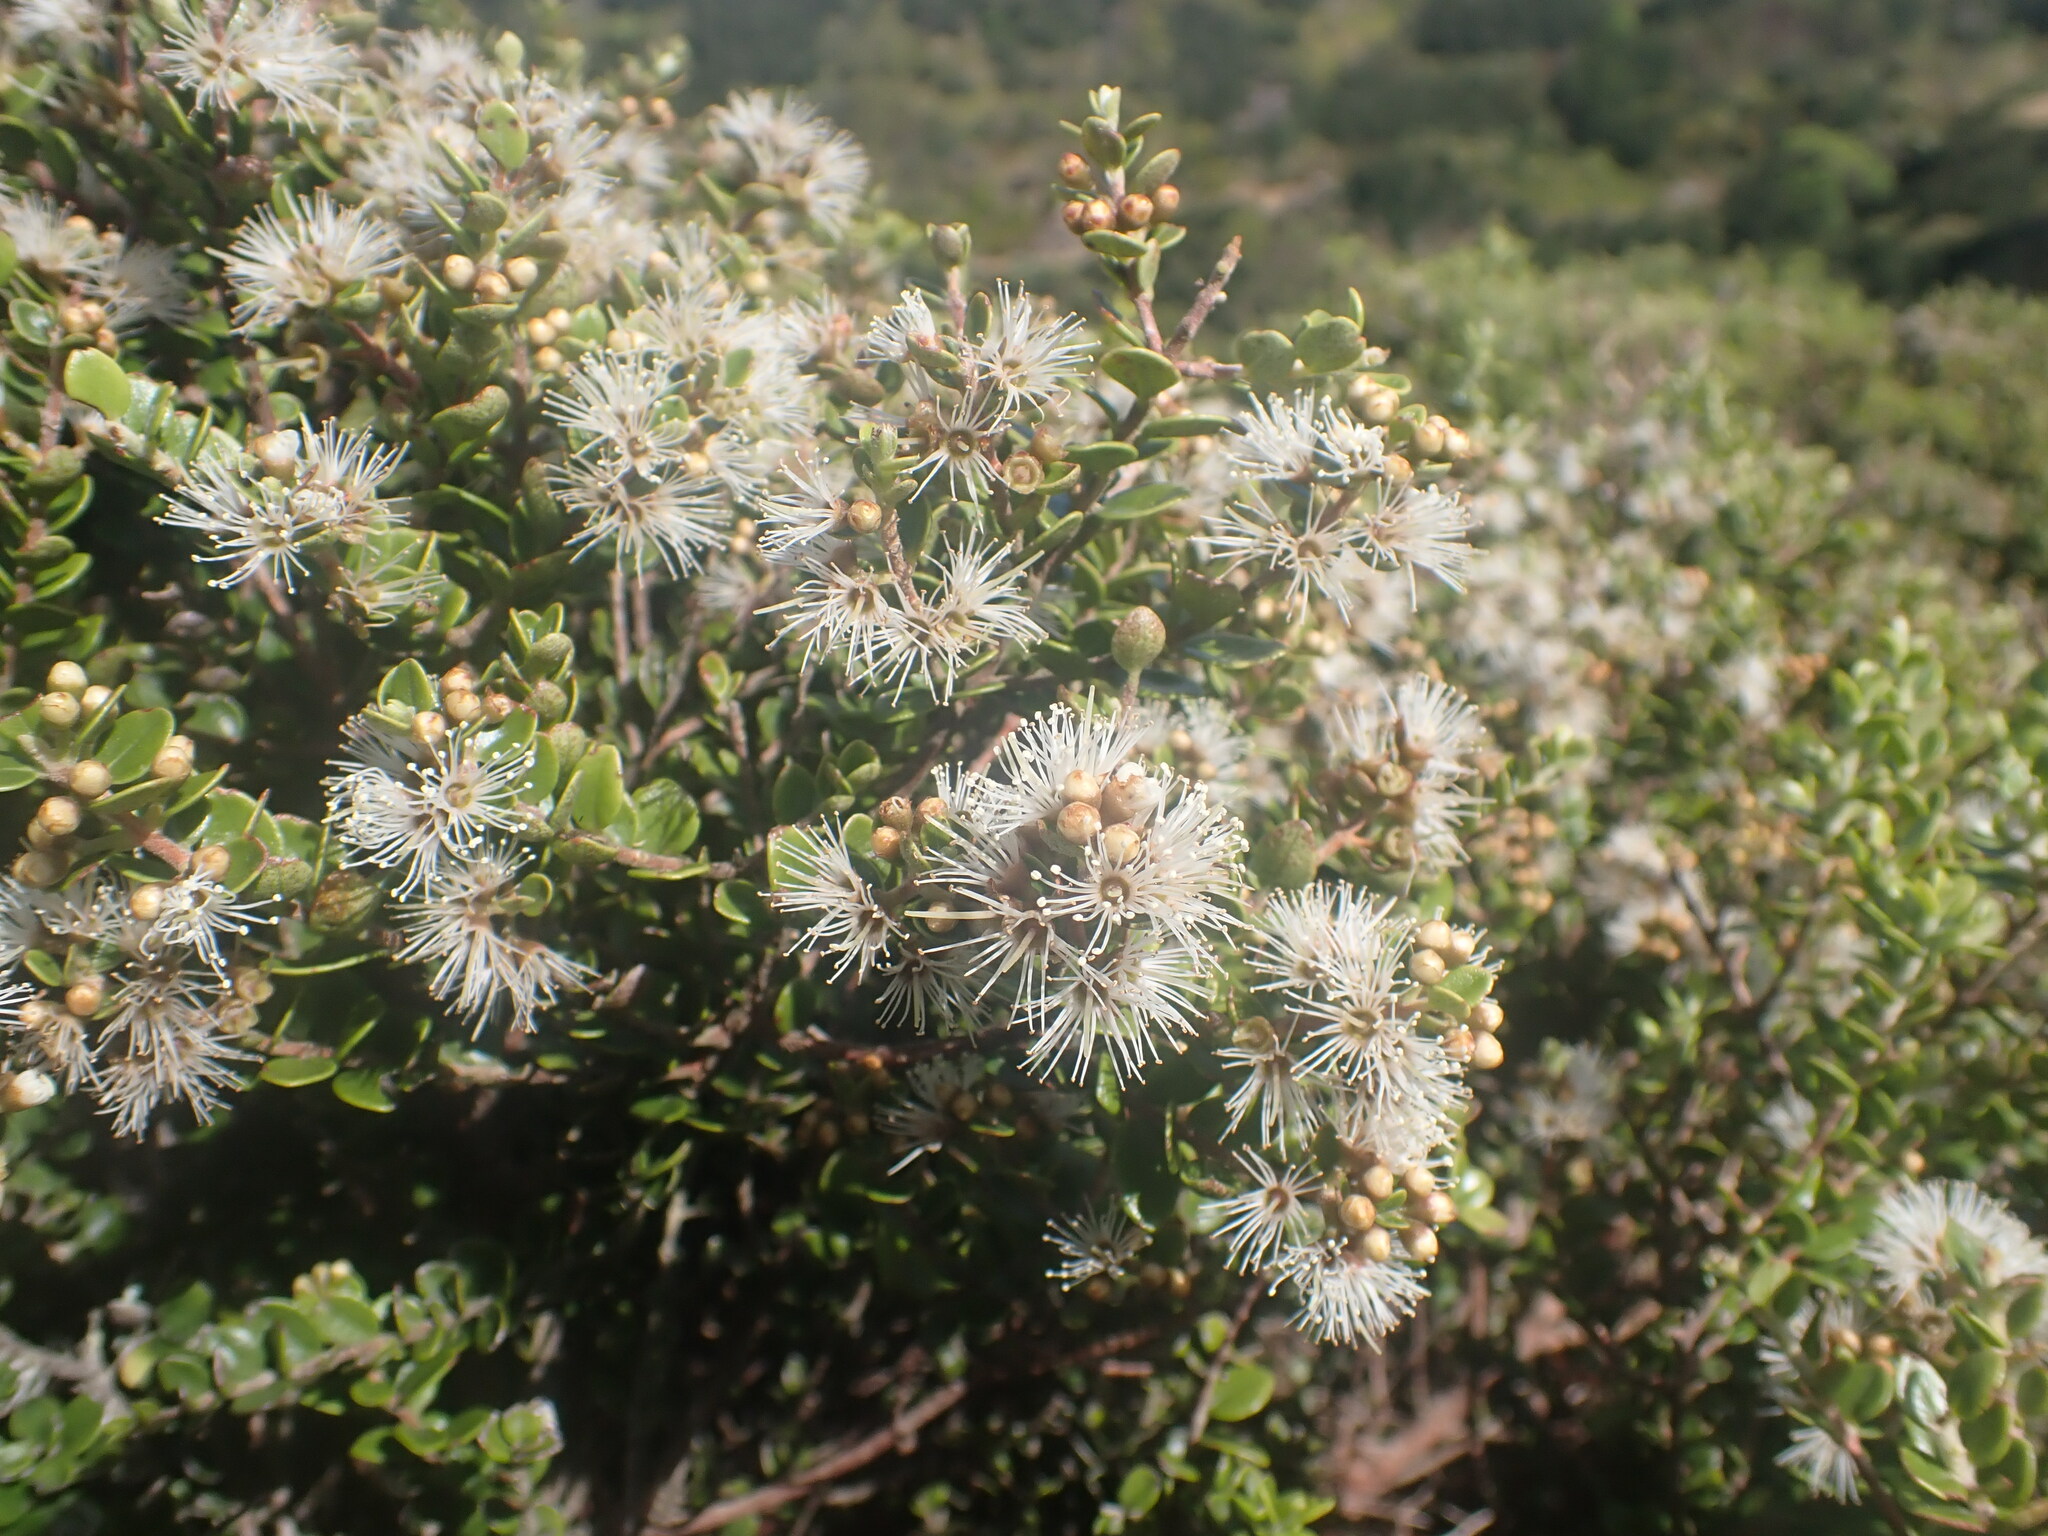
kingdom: Plantae
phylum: Tracheophyta
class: Magnoliopsida
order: Myrtales
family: Myrtaceae
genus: Metrosideros
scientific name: Metrosideros perforata
